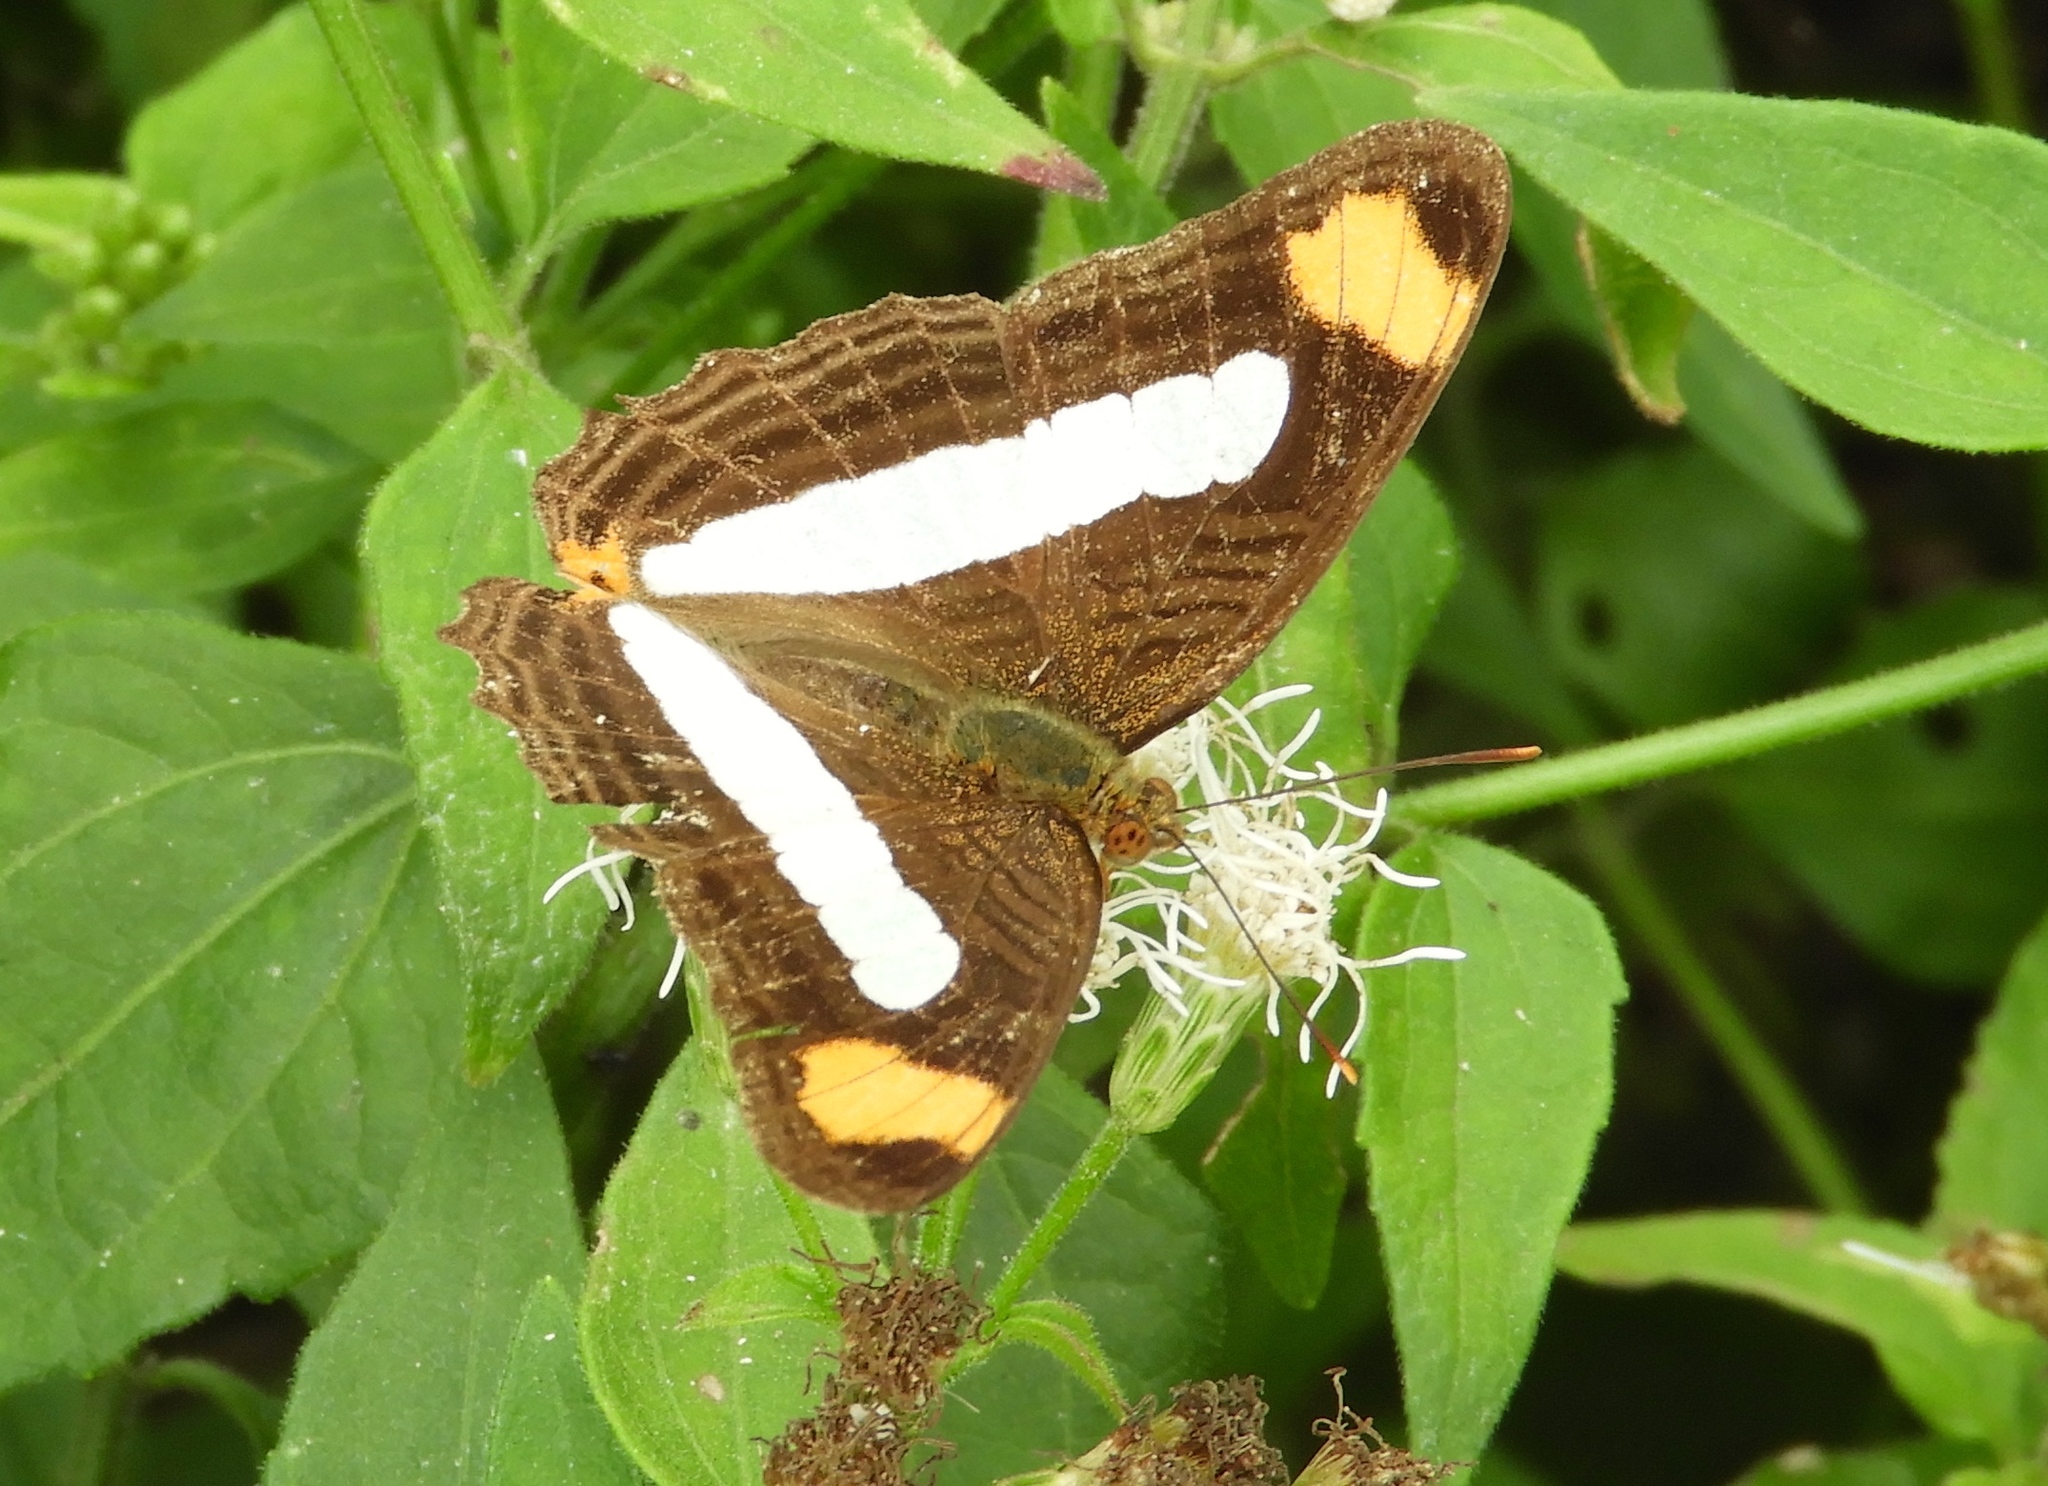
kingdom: Animalia
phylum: Arthropoda
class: Insecta
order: Lepidoptera
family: Nymphalidae
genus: Limenitis
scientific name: Limenitis iphiclus
